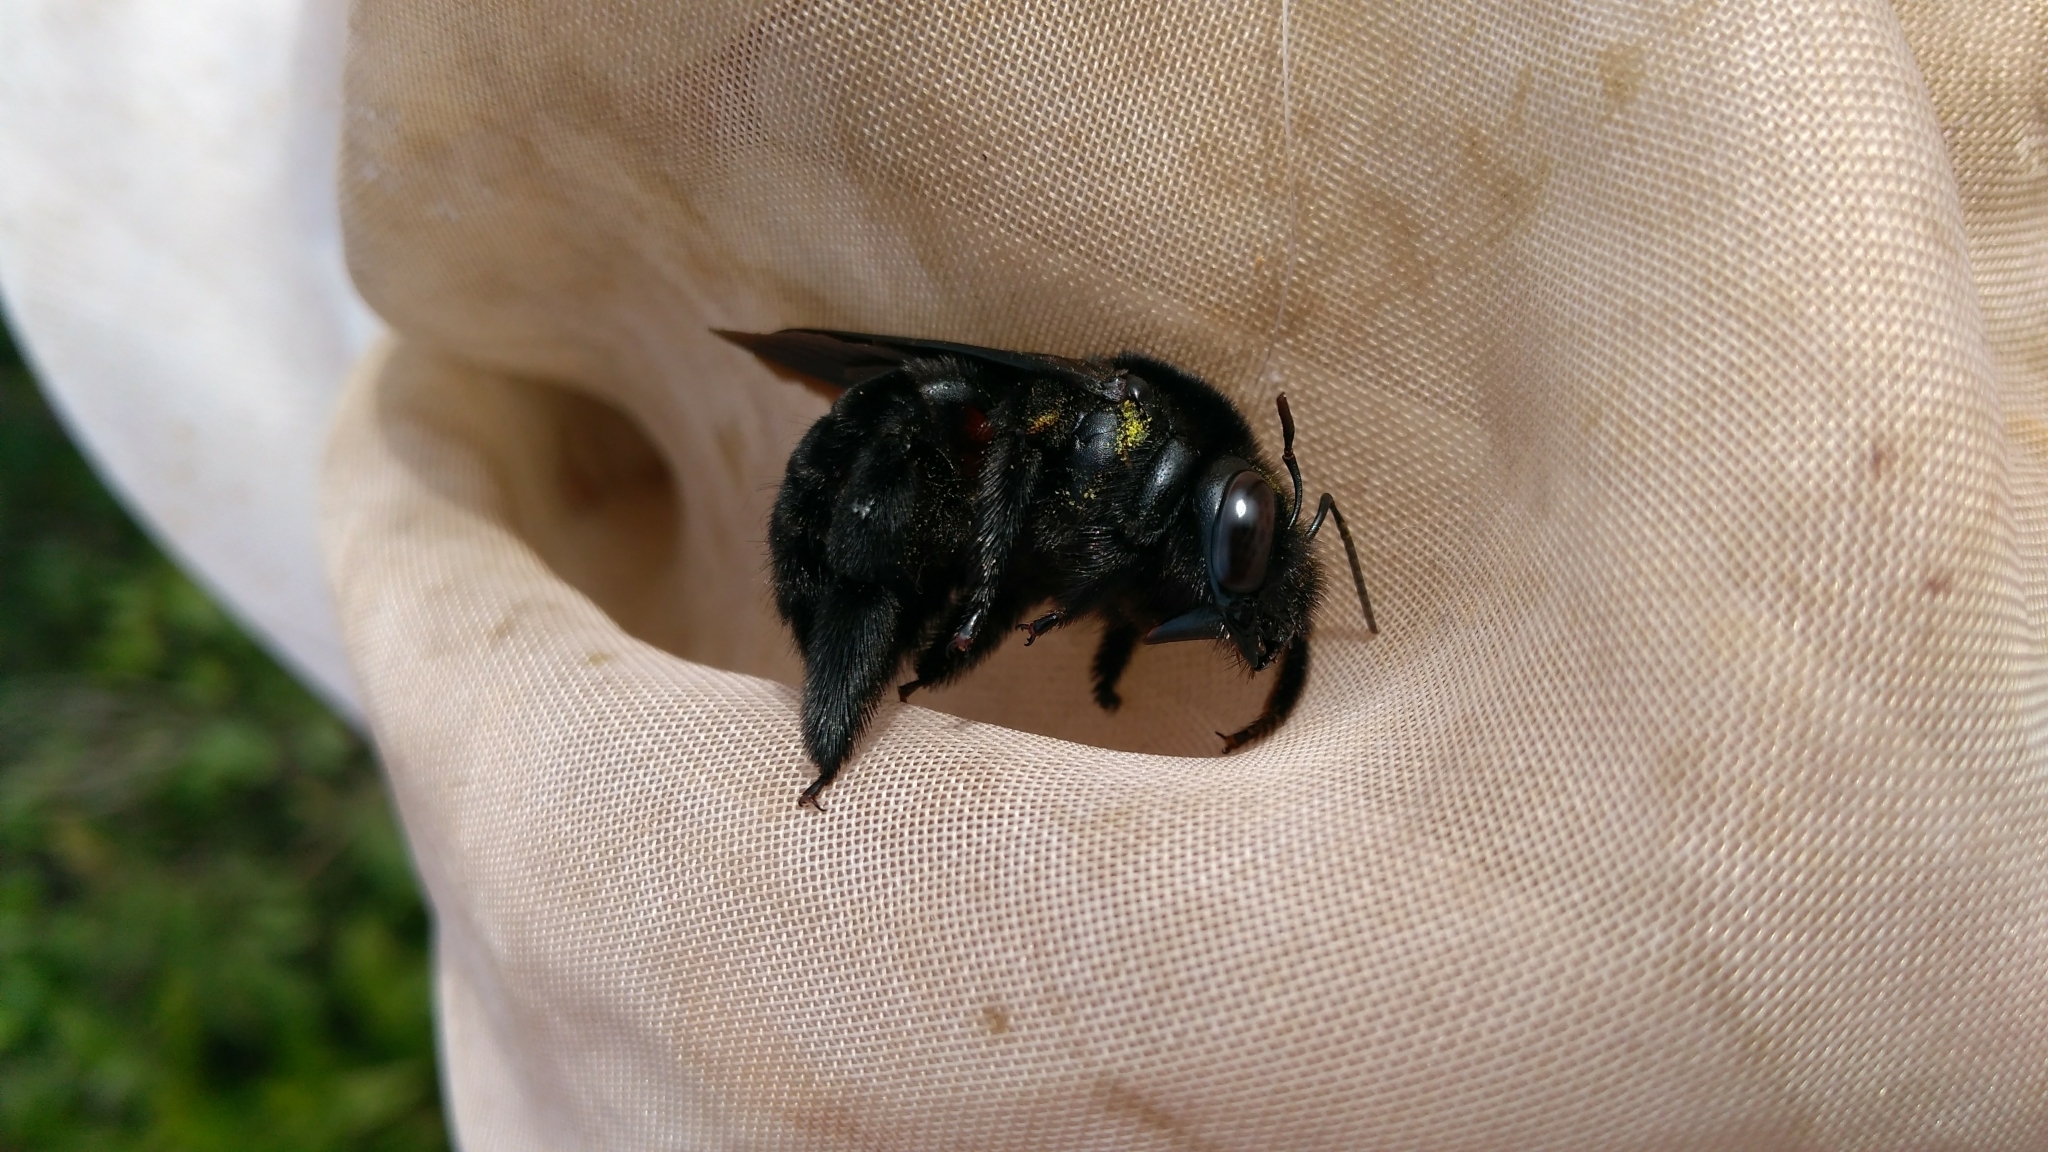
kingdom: Animalia
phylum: Arthropoda
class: Insecta
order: Hymenoptera
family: Apidae
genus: Xylocopa
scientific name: Xylocopa hirsutissima
